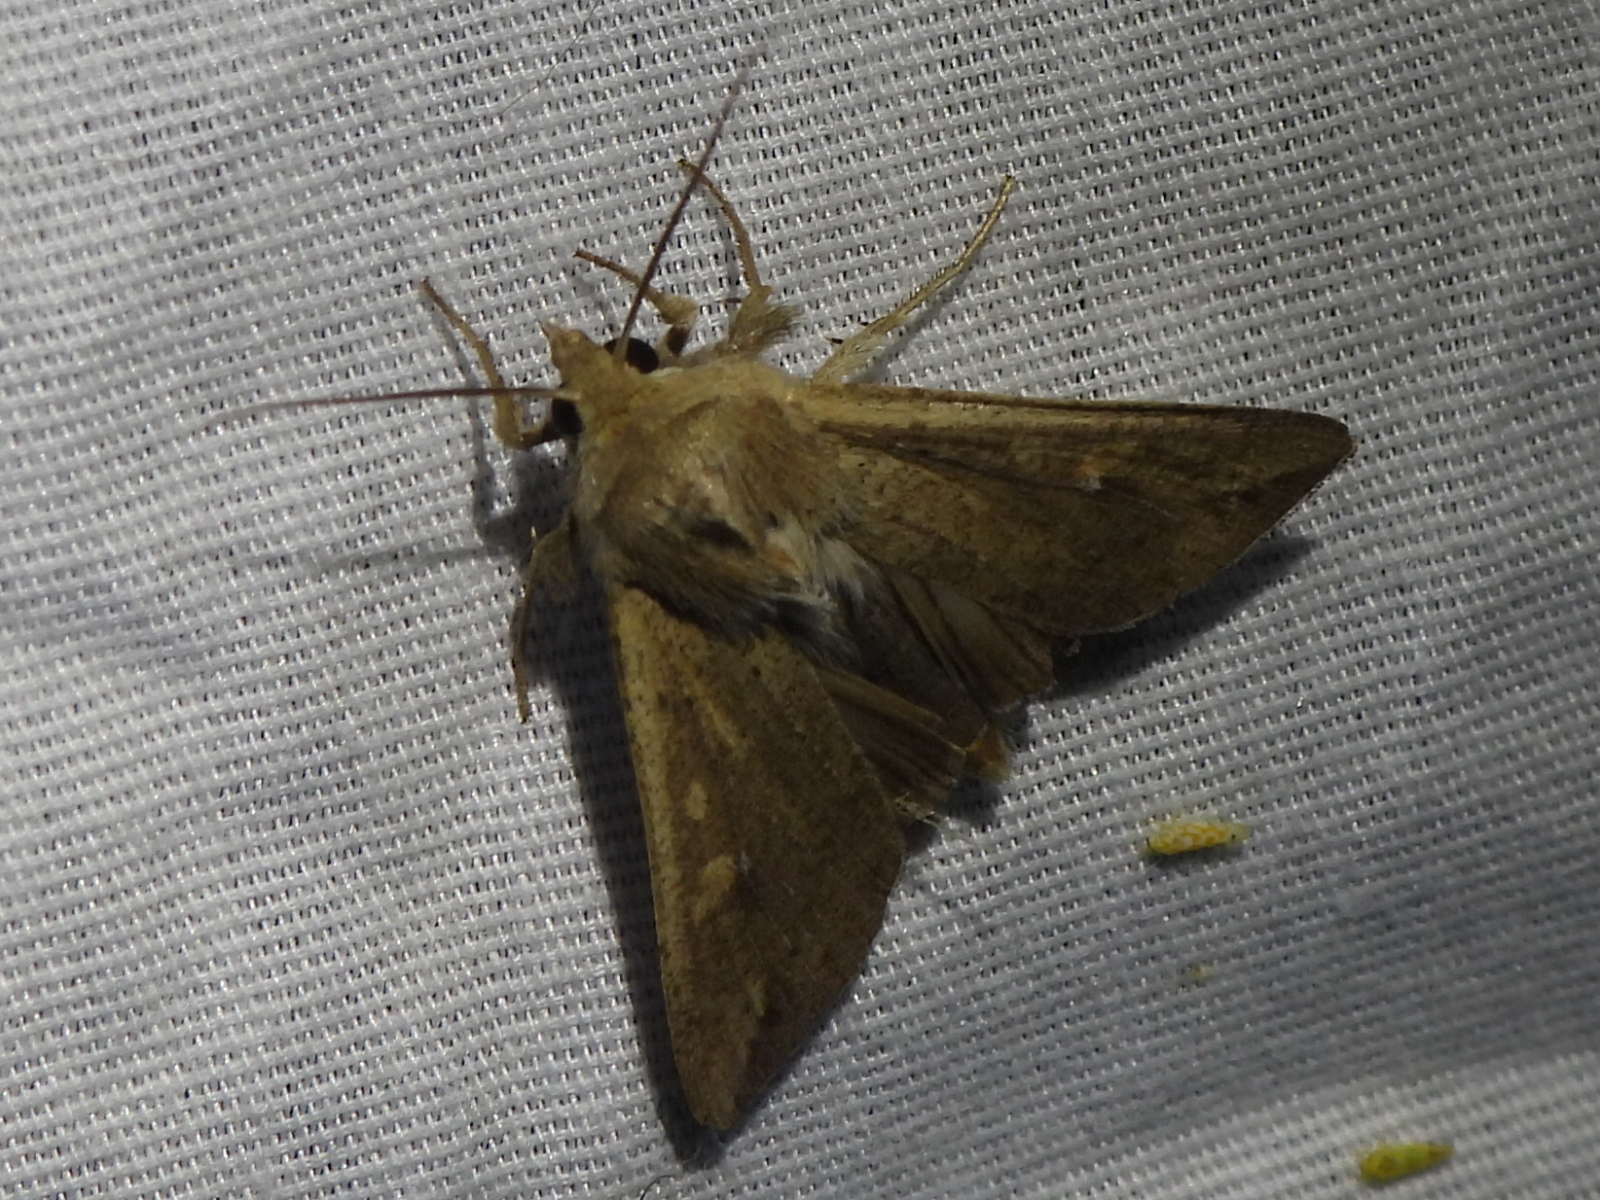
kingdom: Animalia
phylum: Arthropoda
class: Insecta
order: Lepidoptera
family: Noctuidae
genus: Mythimna
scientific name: Mythimna unipuncta
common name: White-speck
